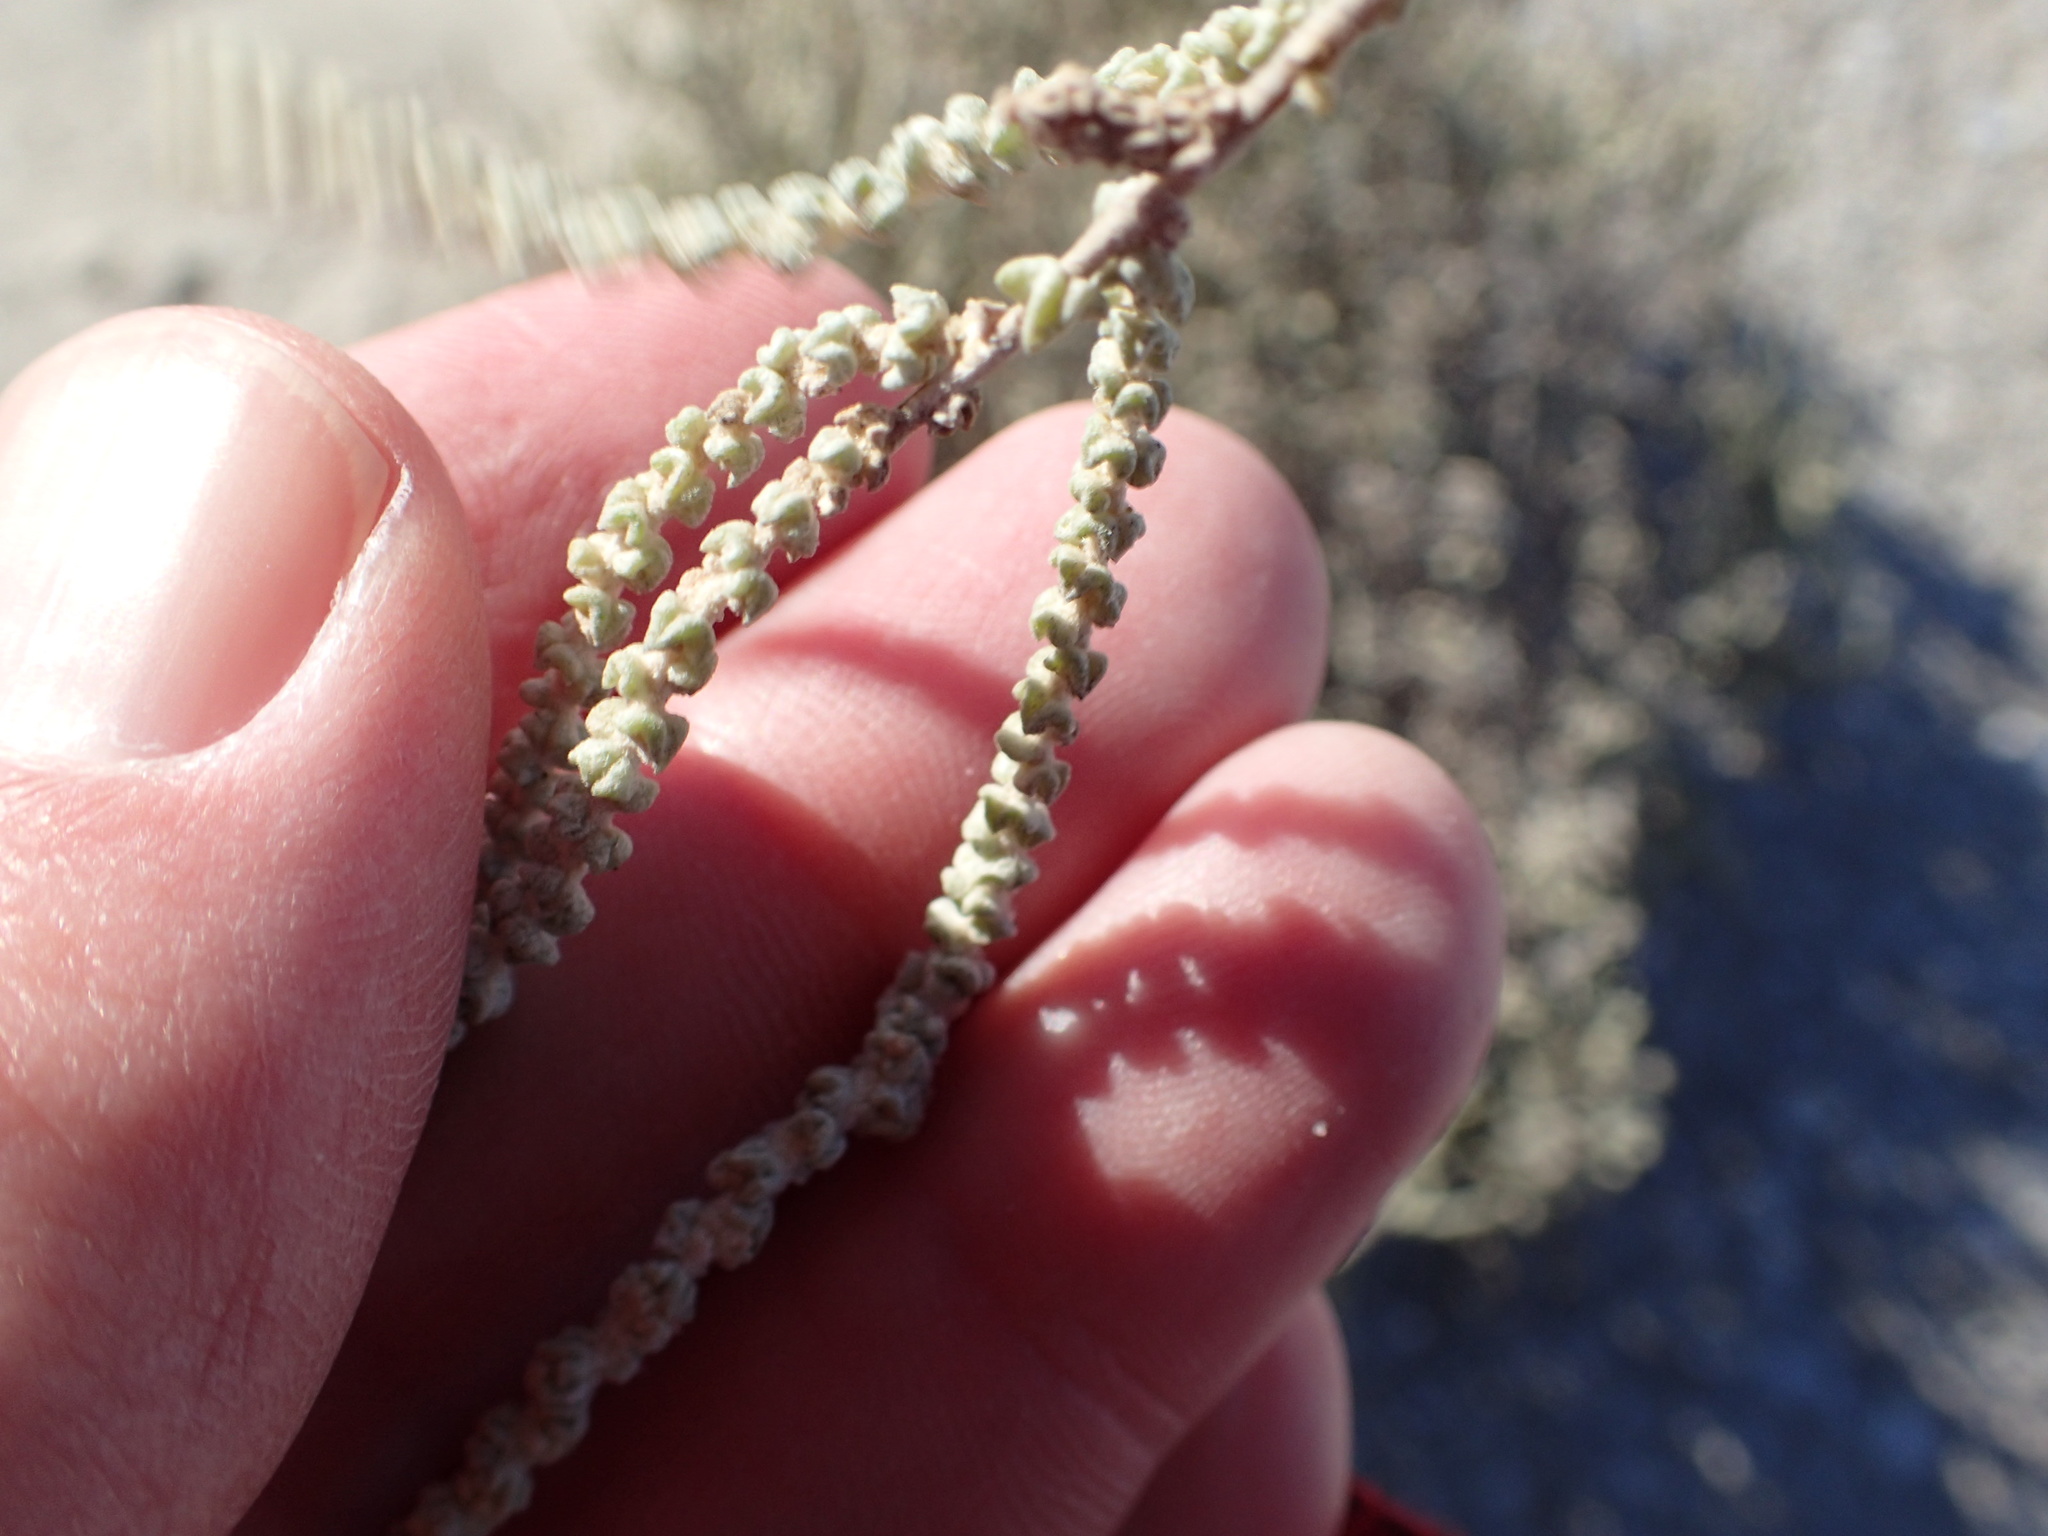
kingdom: Plantae
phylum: Tracheophyta
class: Magnoliopsida
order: Caryophyllales
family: Amaranthaceae
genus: Atriplex
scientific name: Atriplex julacea
